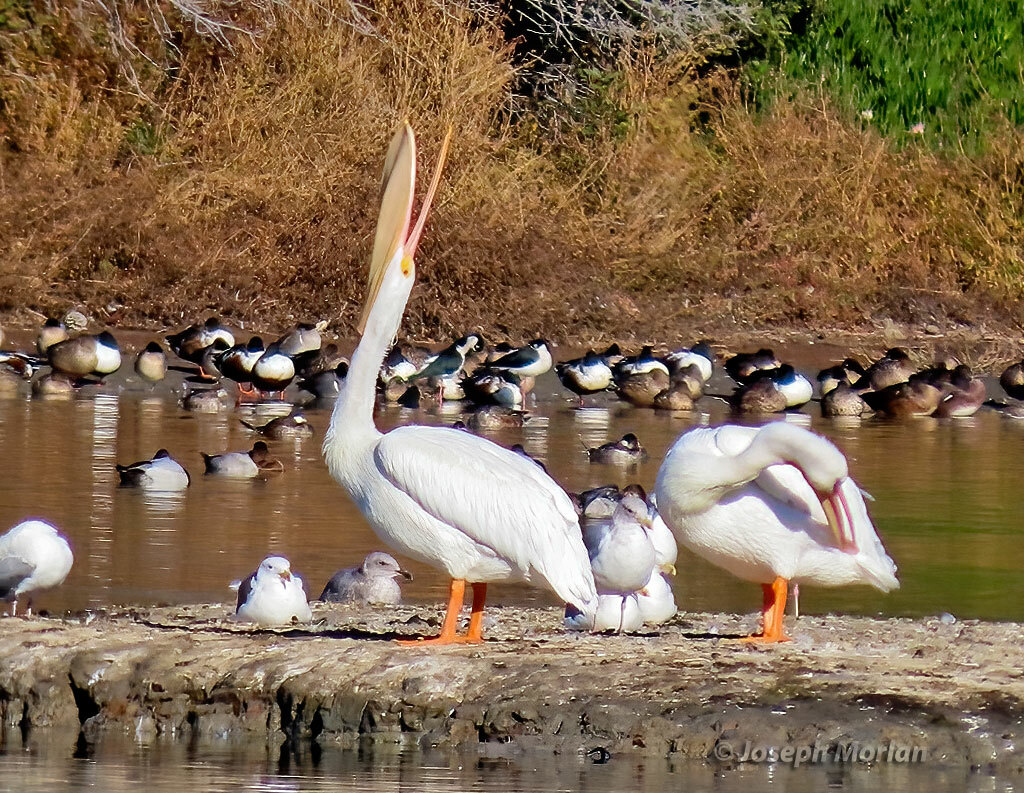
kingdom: Animalia
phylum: Chordata
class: Aves
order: Pelecaniformes
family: Pelecanidae
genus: Pelecanus
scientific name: Pelecanus erythrorhynchos
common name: American white pelican
